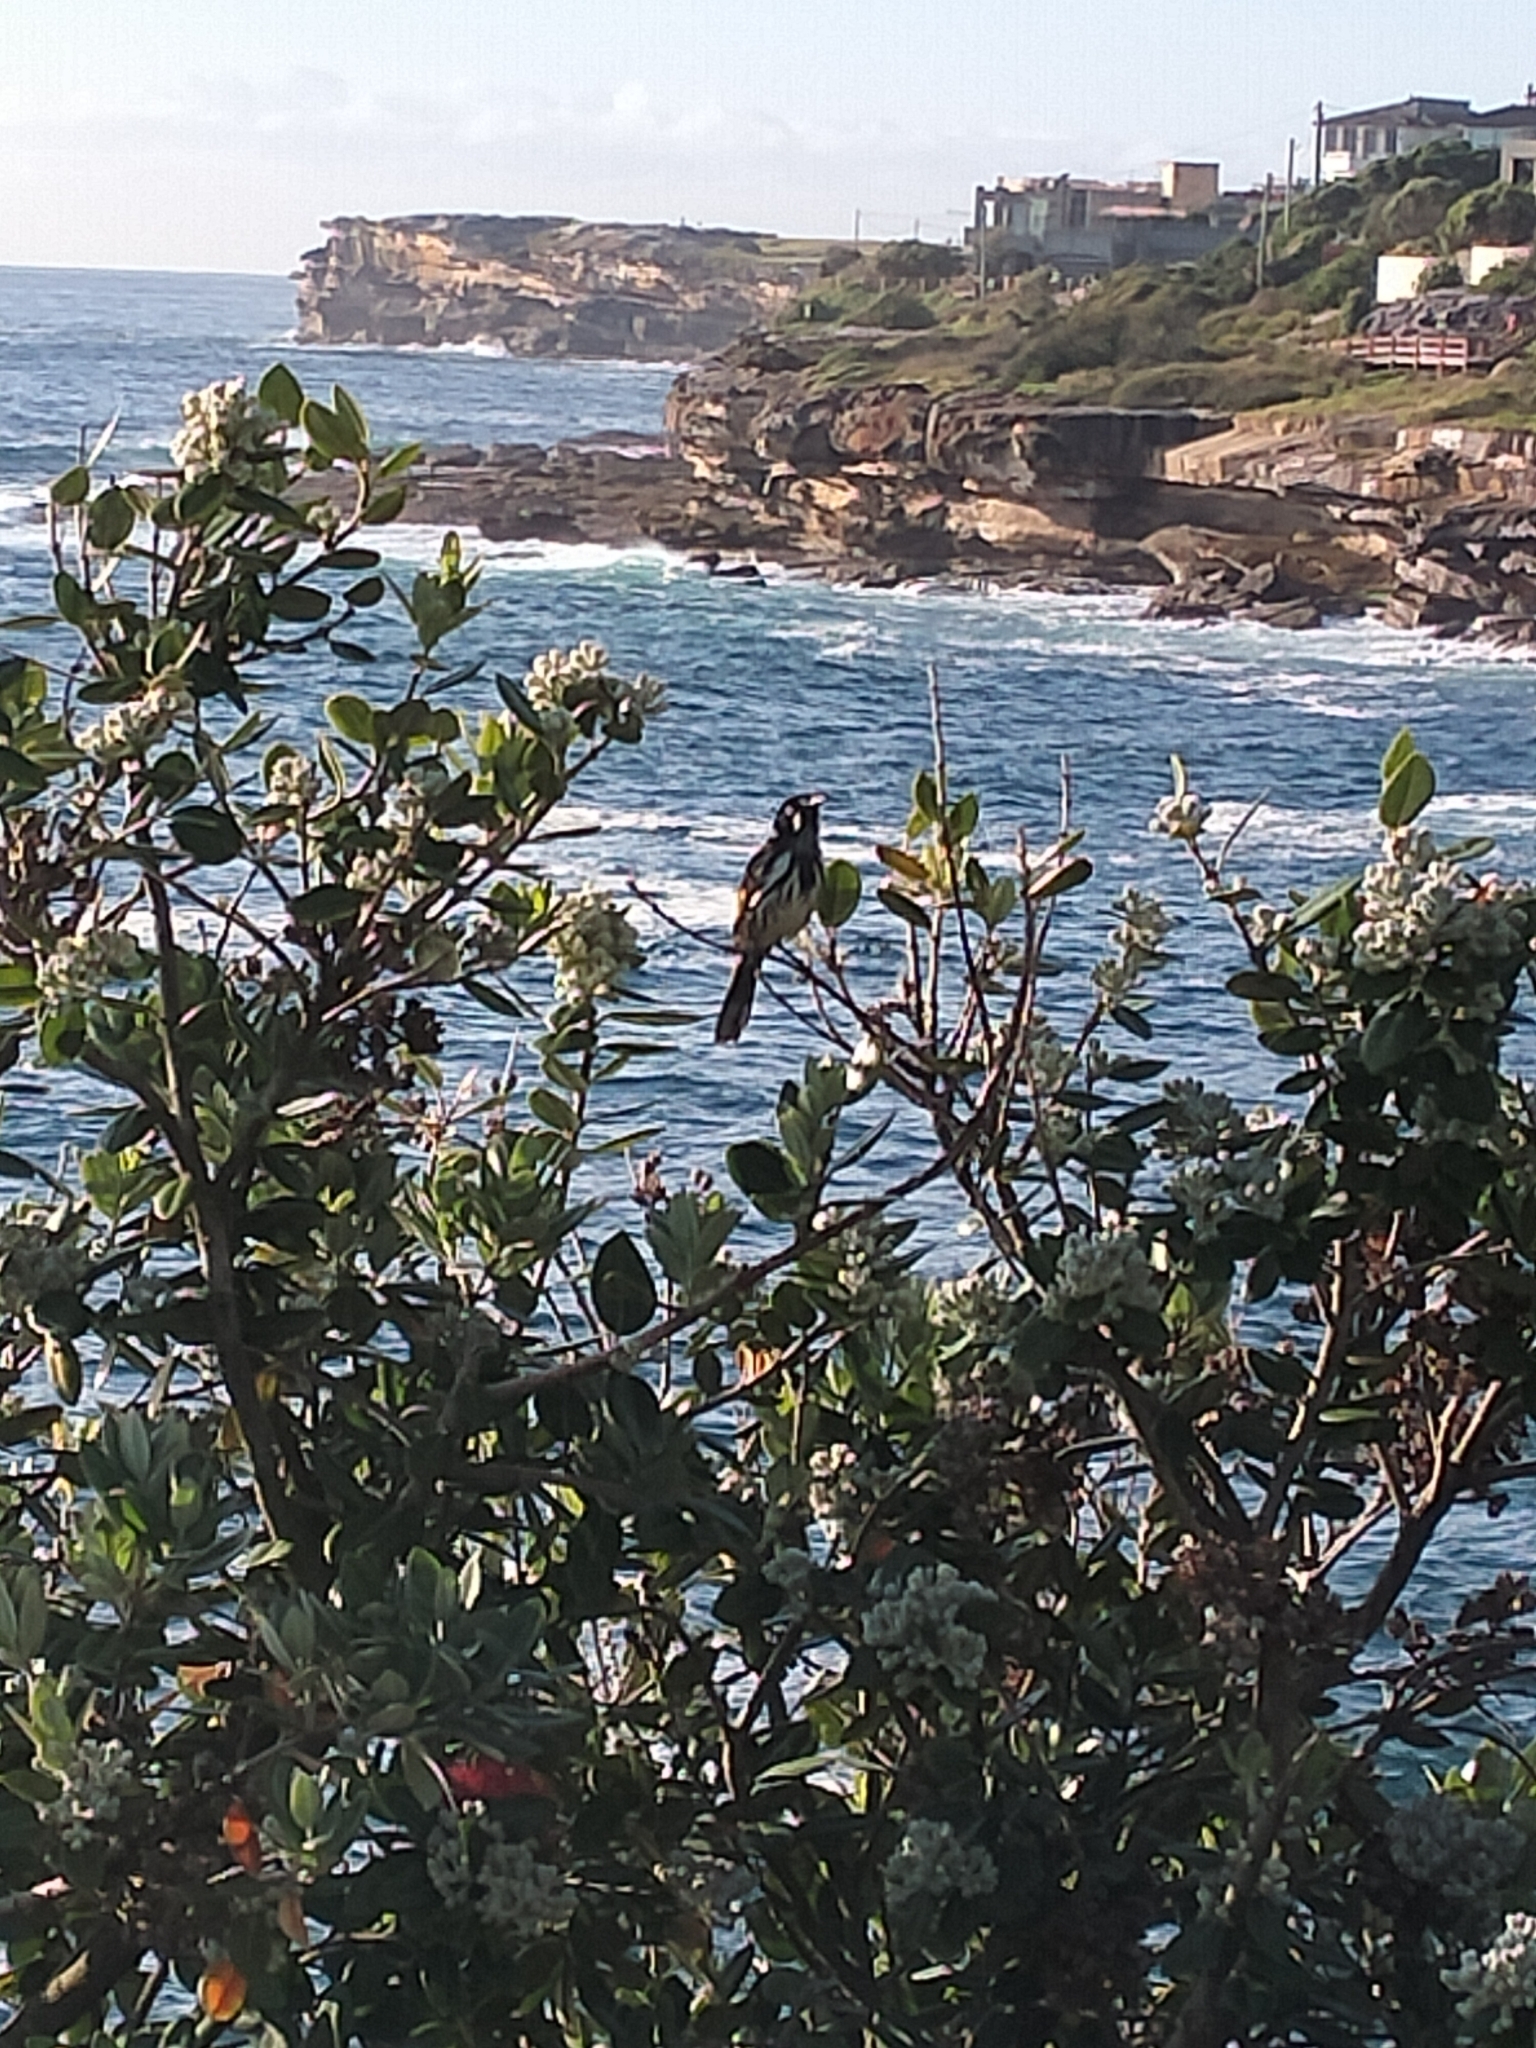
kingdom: Animalia
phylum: Chordata
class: Aves
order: Passeriformes
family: Meliphagidae
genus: Phylidonyris
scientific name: Phylidonyris novaehollandiae
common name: New holland honeyeater
